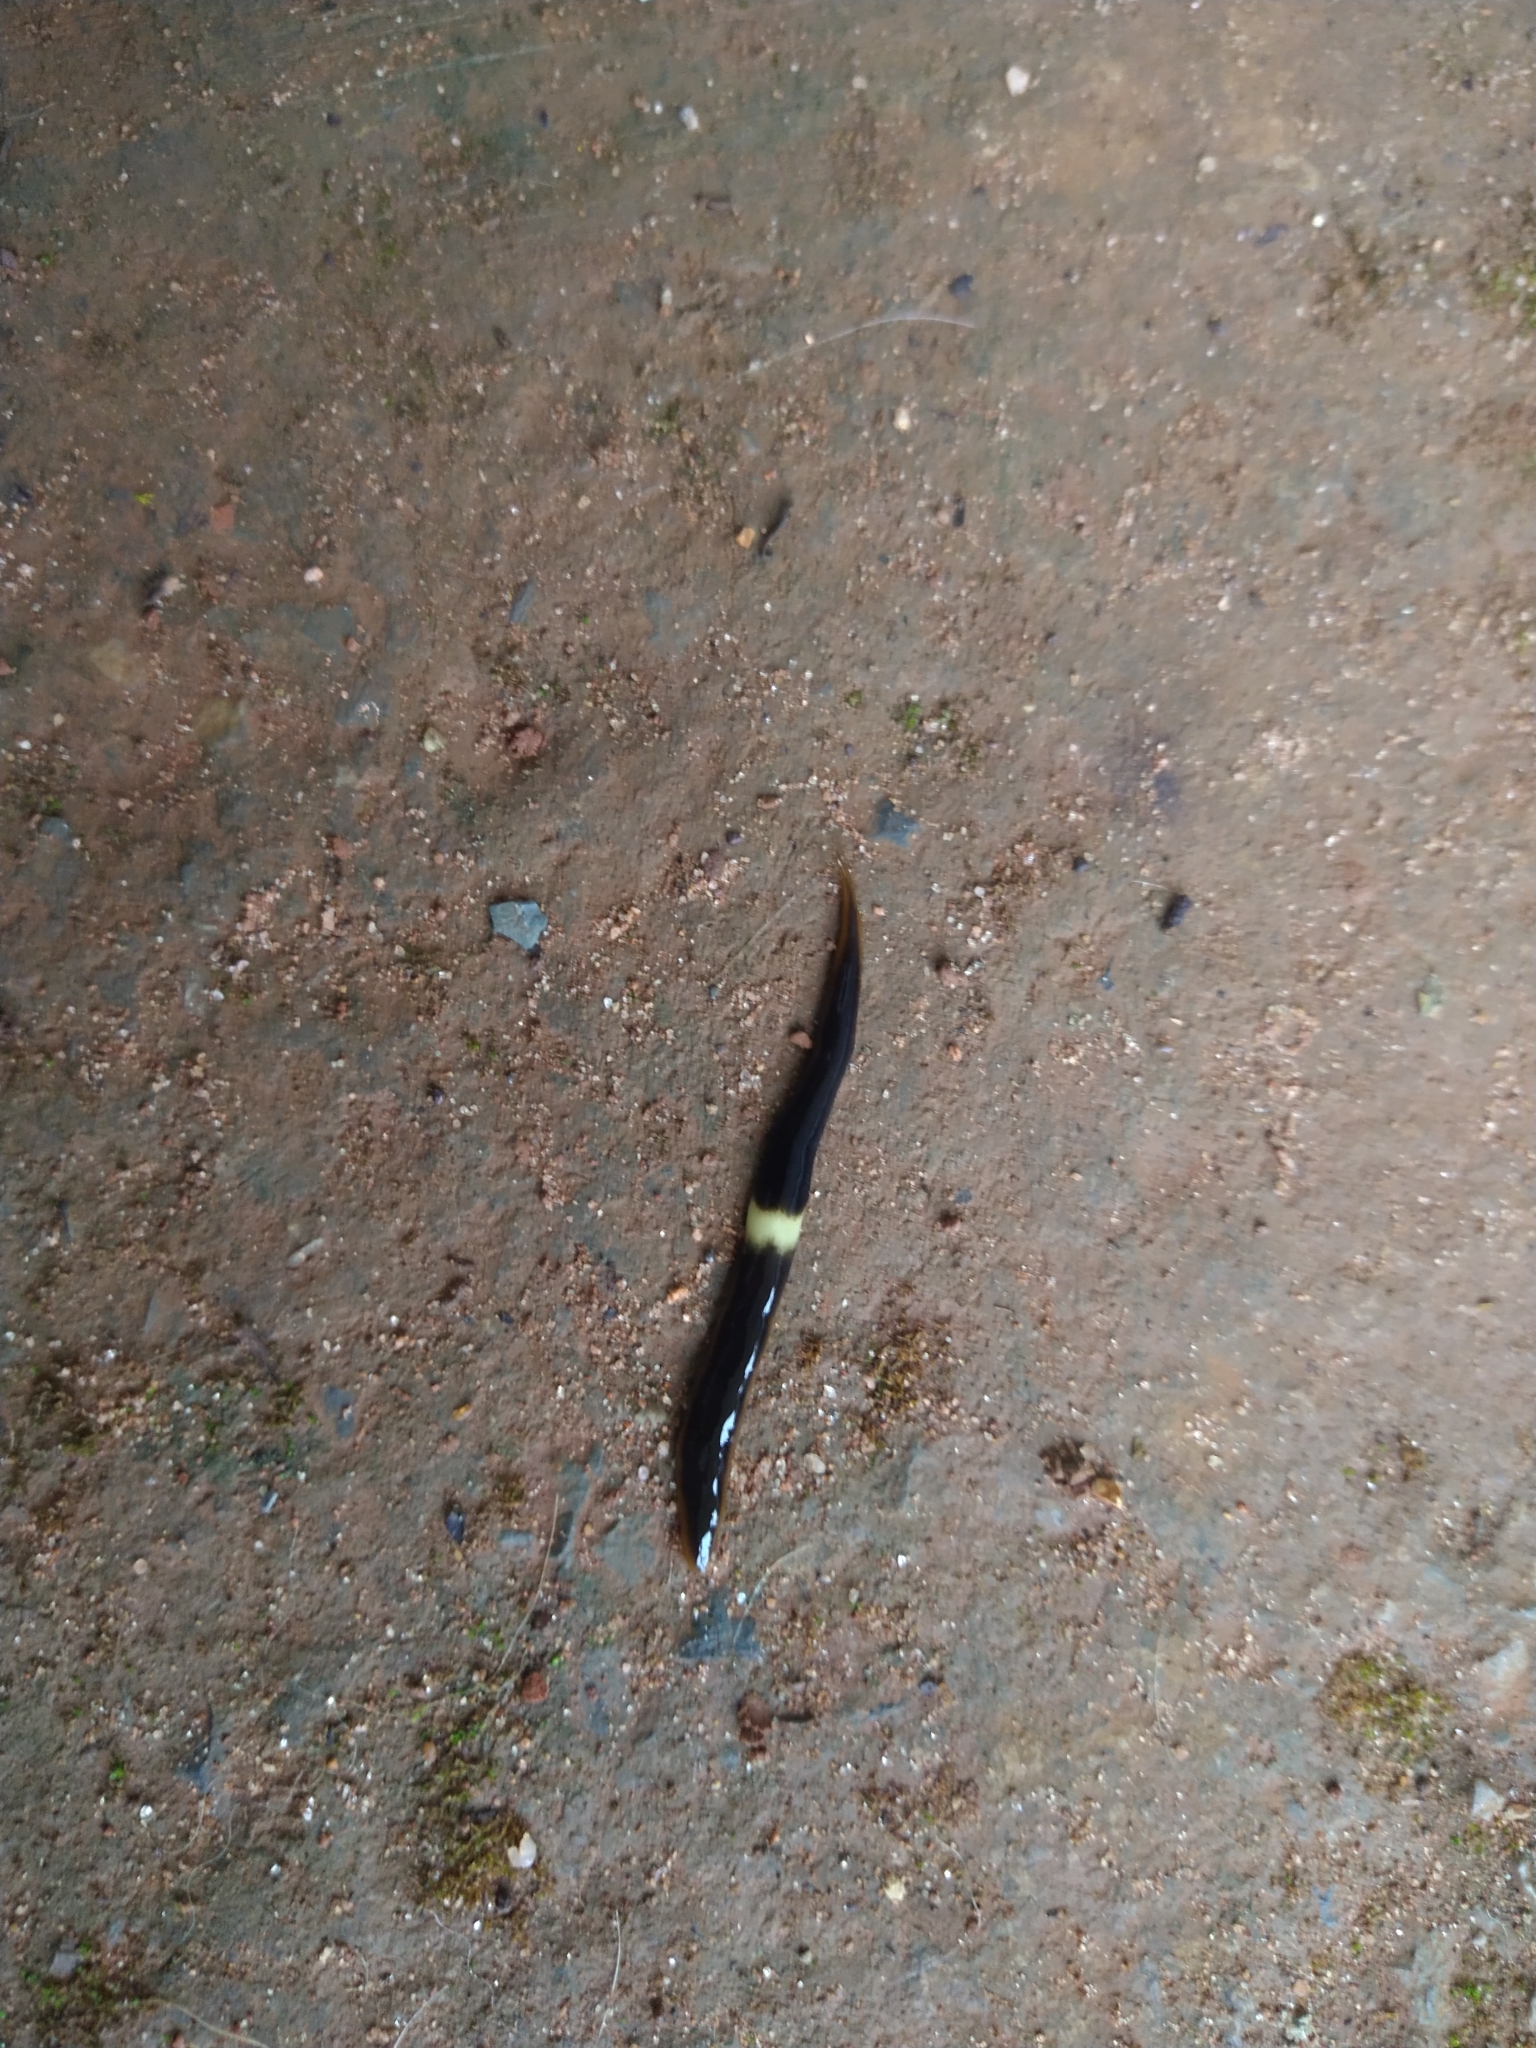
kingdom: Animalia
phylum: Platyhelminthes
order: Tricladida
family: Geoplanidae
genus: Paraba
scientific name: Paraba pankaru
